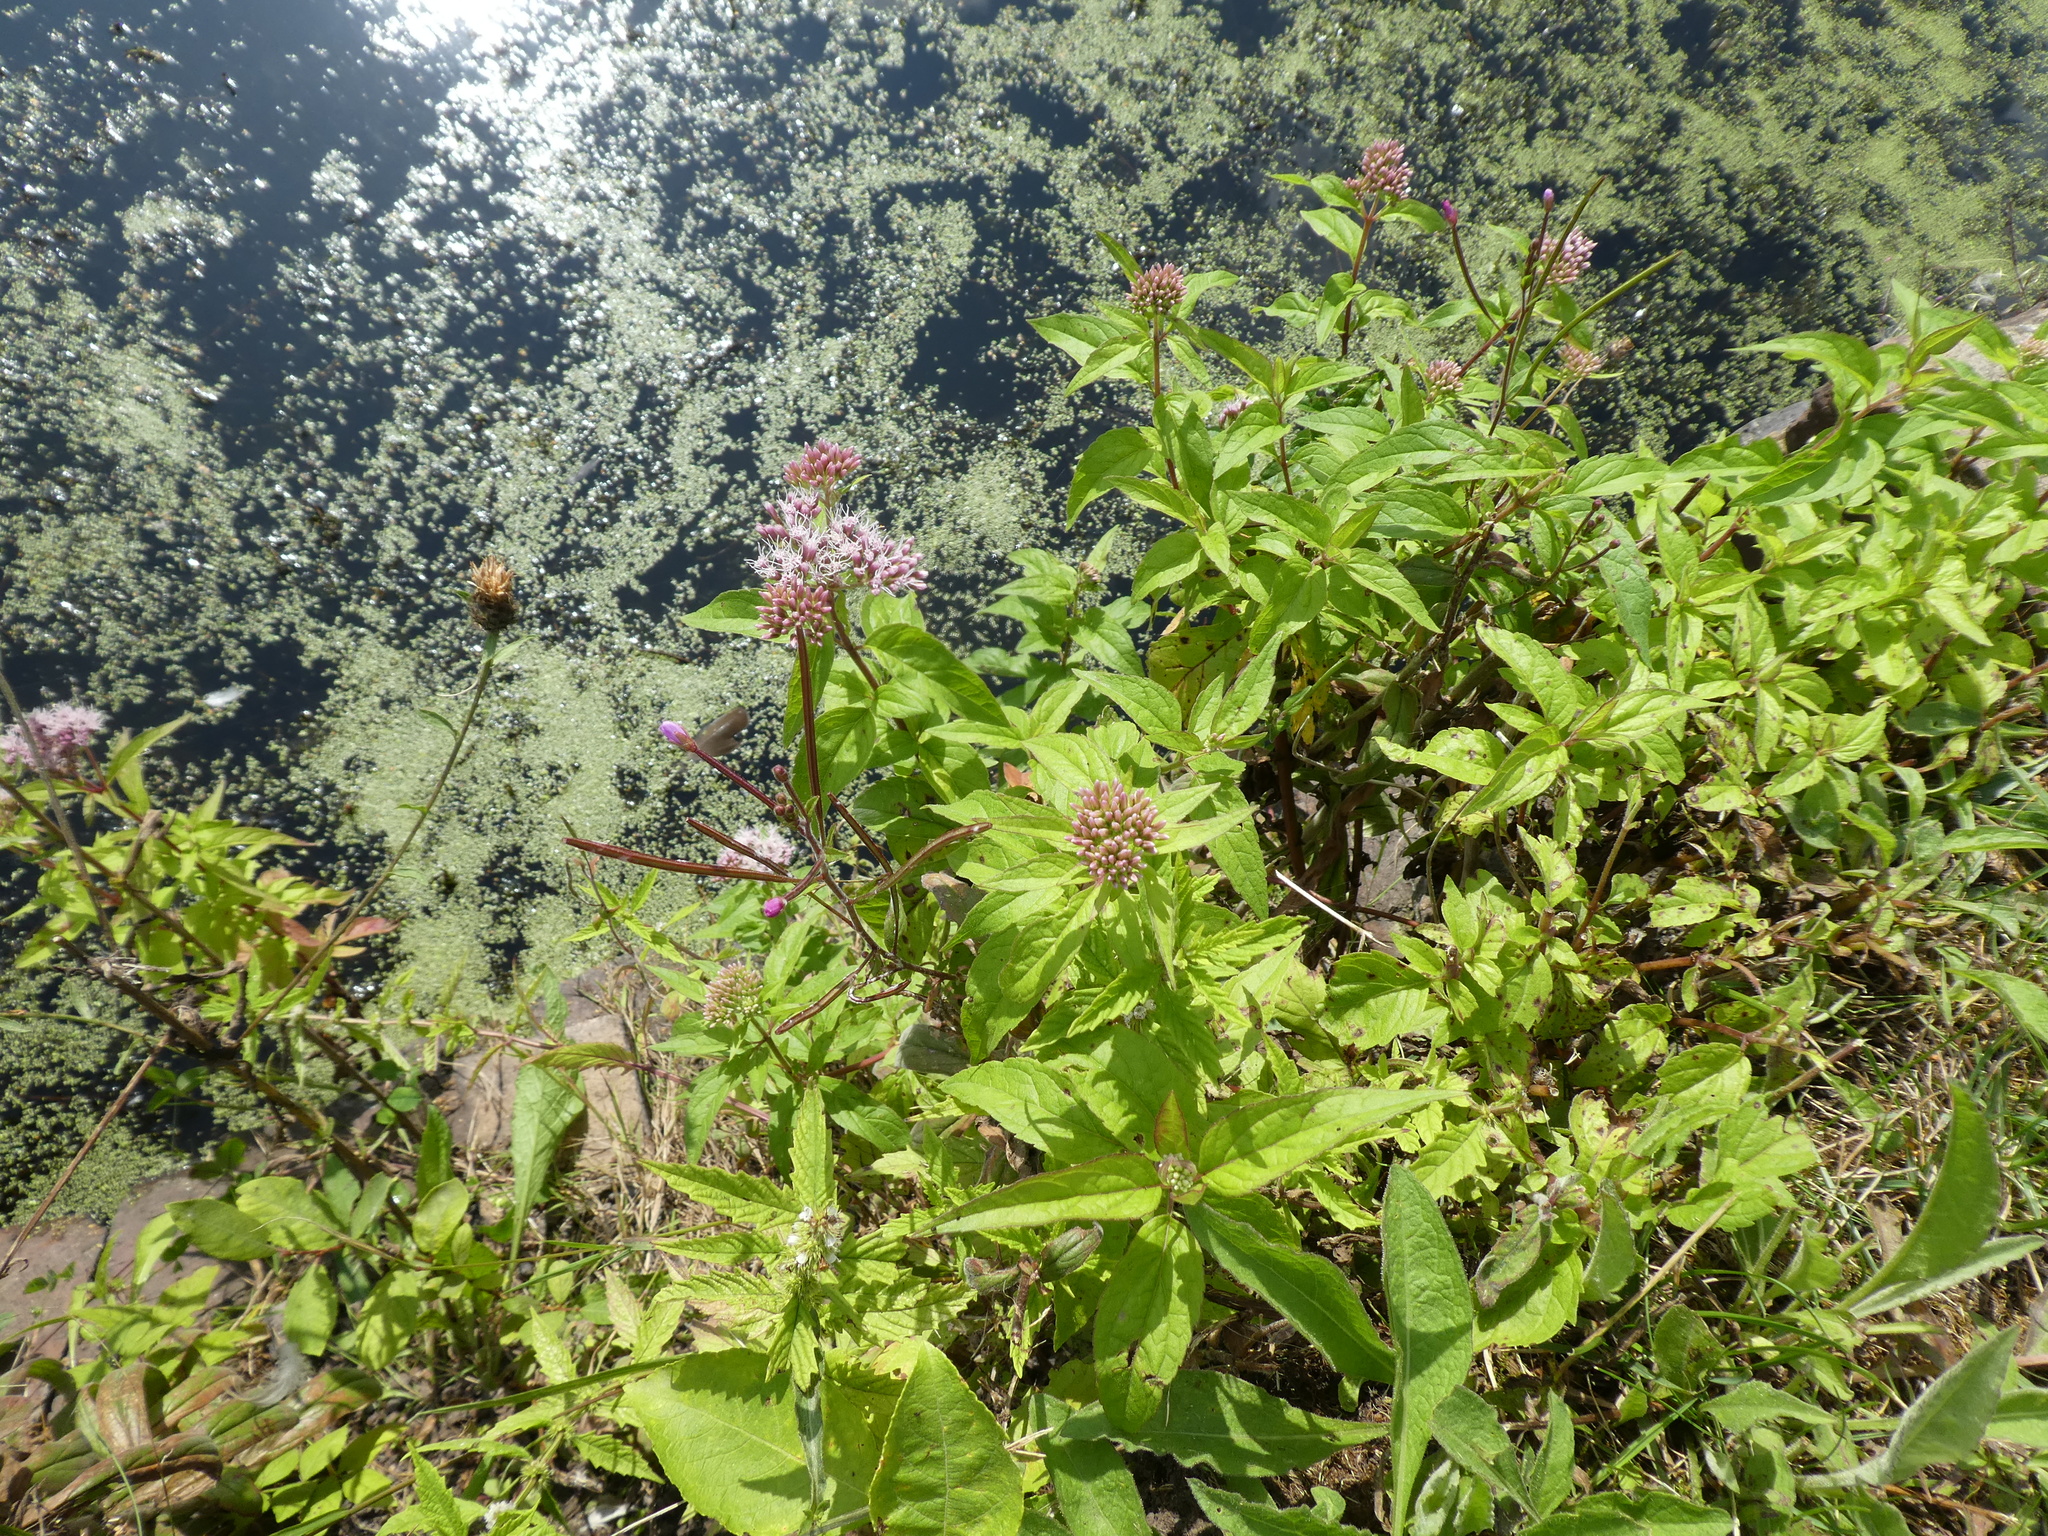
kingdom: Plantae
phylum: Tracheophyta
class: Magnoliopsida
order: Asterales
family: Asteraceae
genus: Eupatorium
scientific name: Eupatorium cannabinum
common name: Hemp-agrimony
